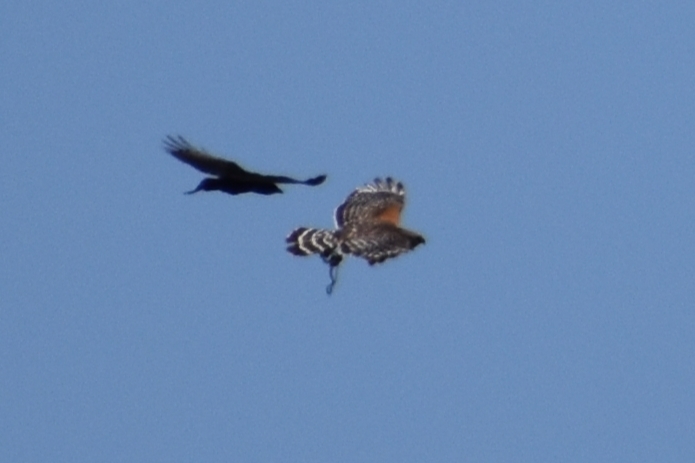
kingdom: Animalia
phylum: Chordata
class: Aves
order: Accipitriformes
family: Accipitridae
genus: Buteo
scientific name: Buteo lineatus
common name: Red-shouldered hawk
